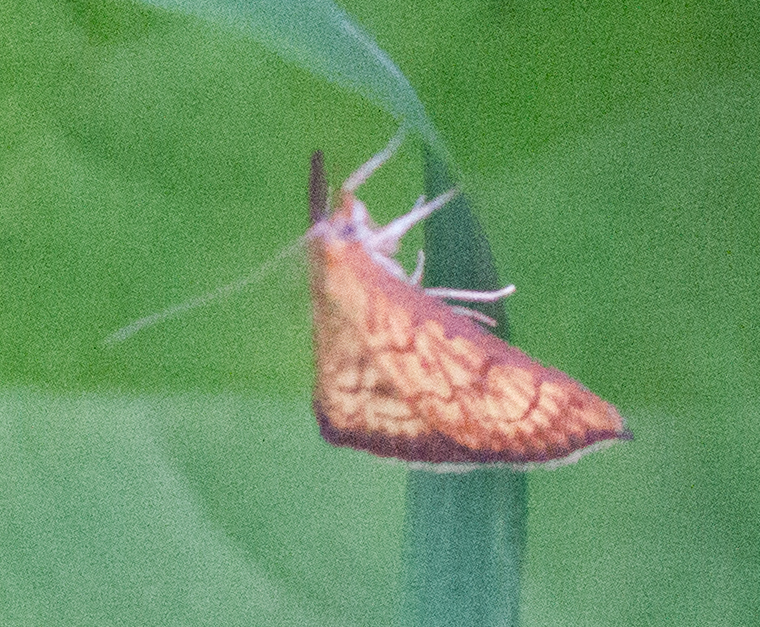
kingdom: Animalia
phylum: Arthropoda
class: Insecta
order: Lepidoptera
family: Crambidae
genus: Ecpyrrhorrhoe
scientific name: Ecpyrrhorrhoe rubiginalis
